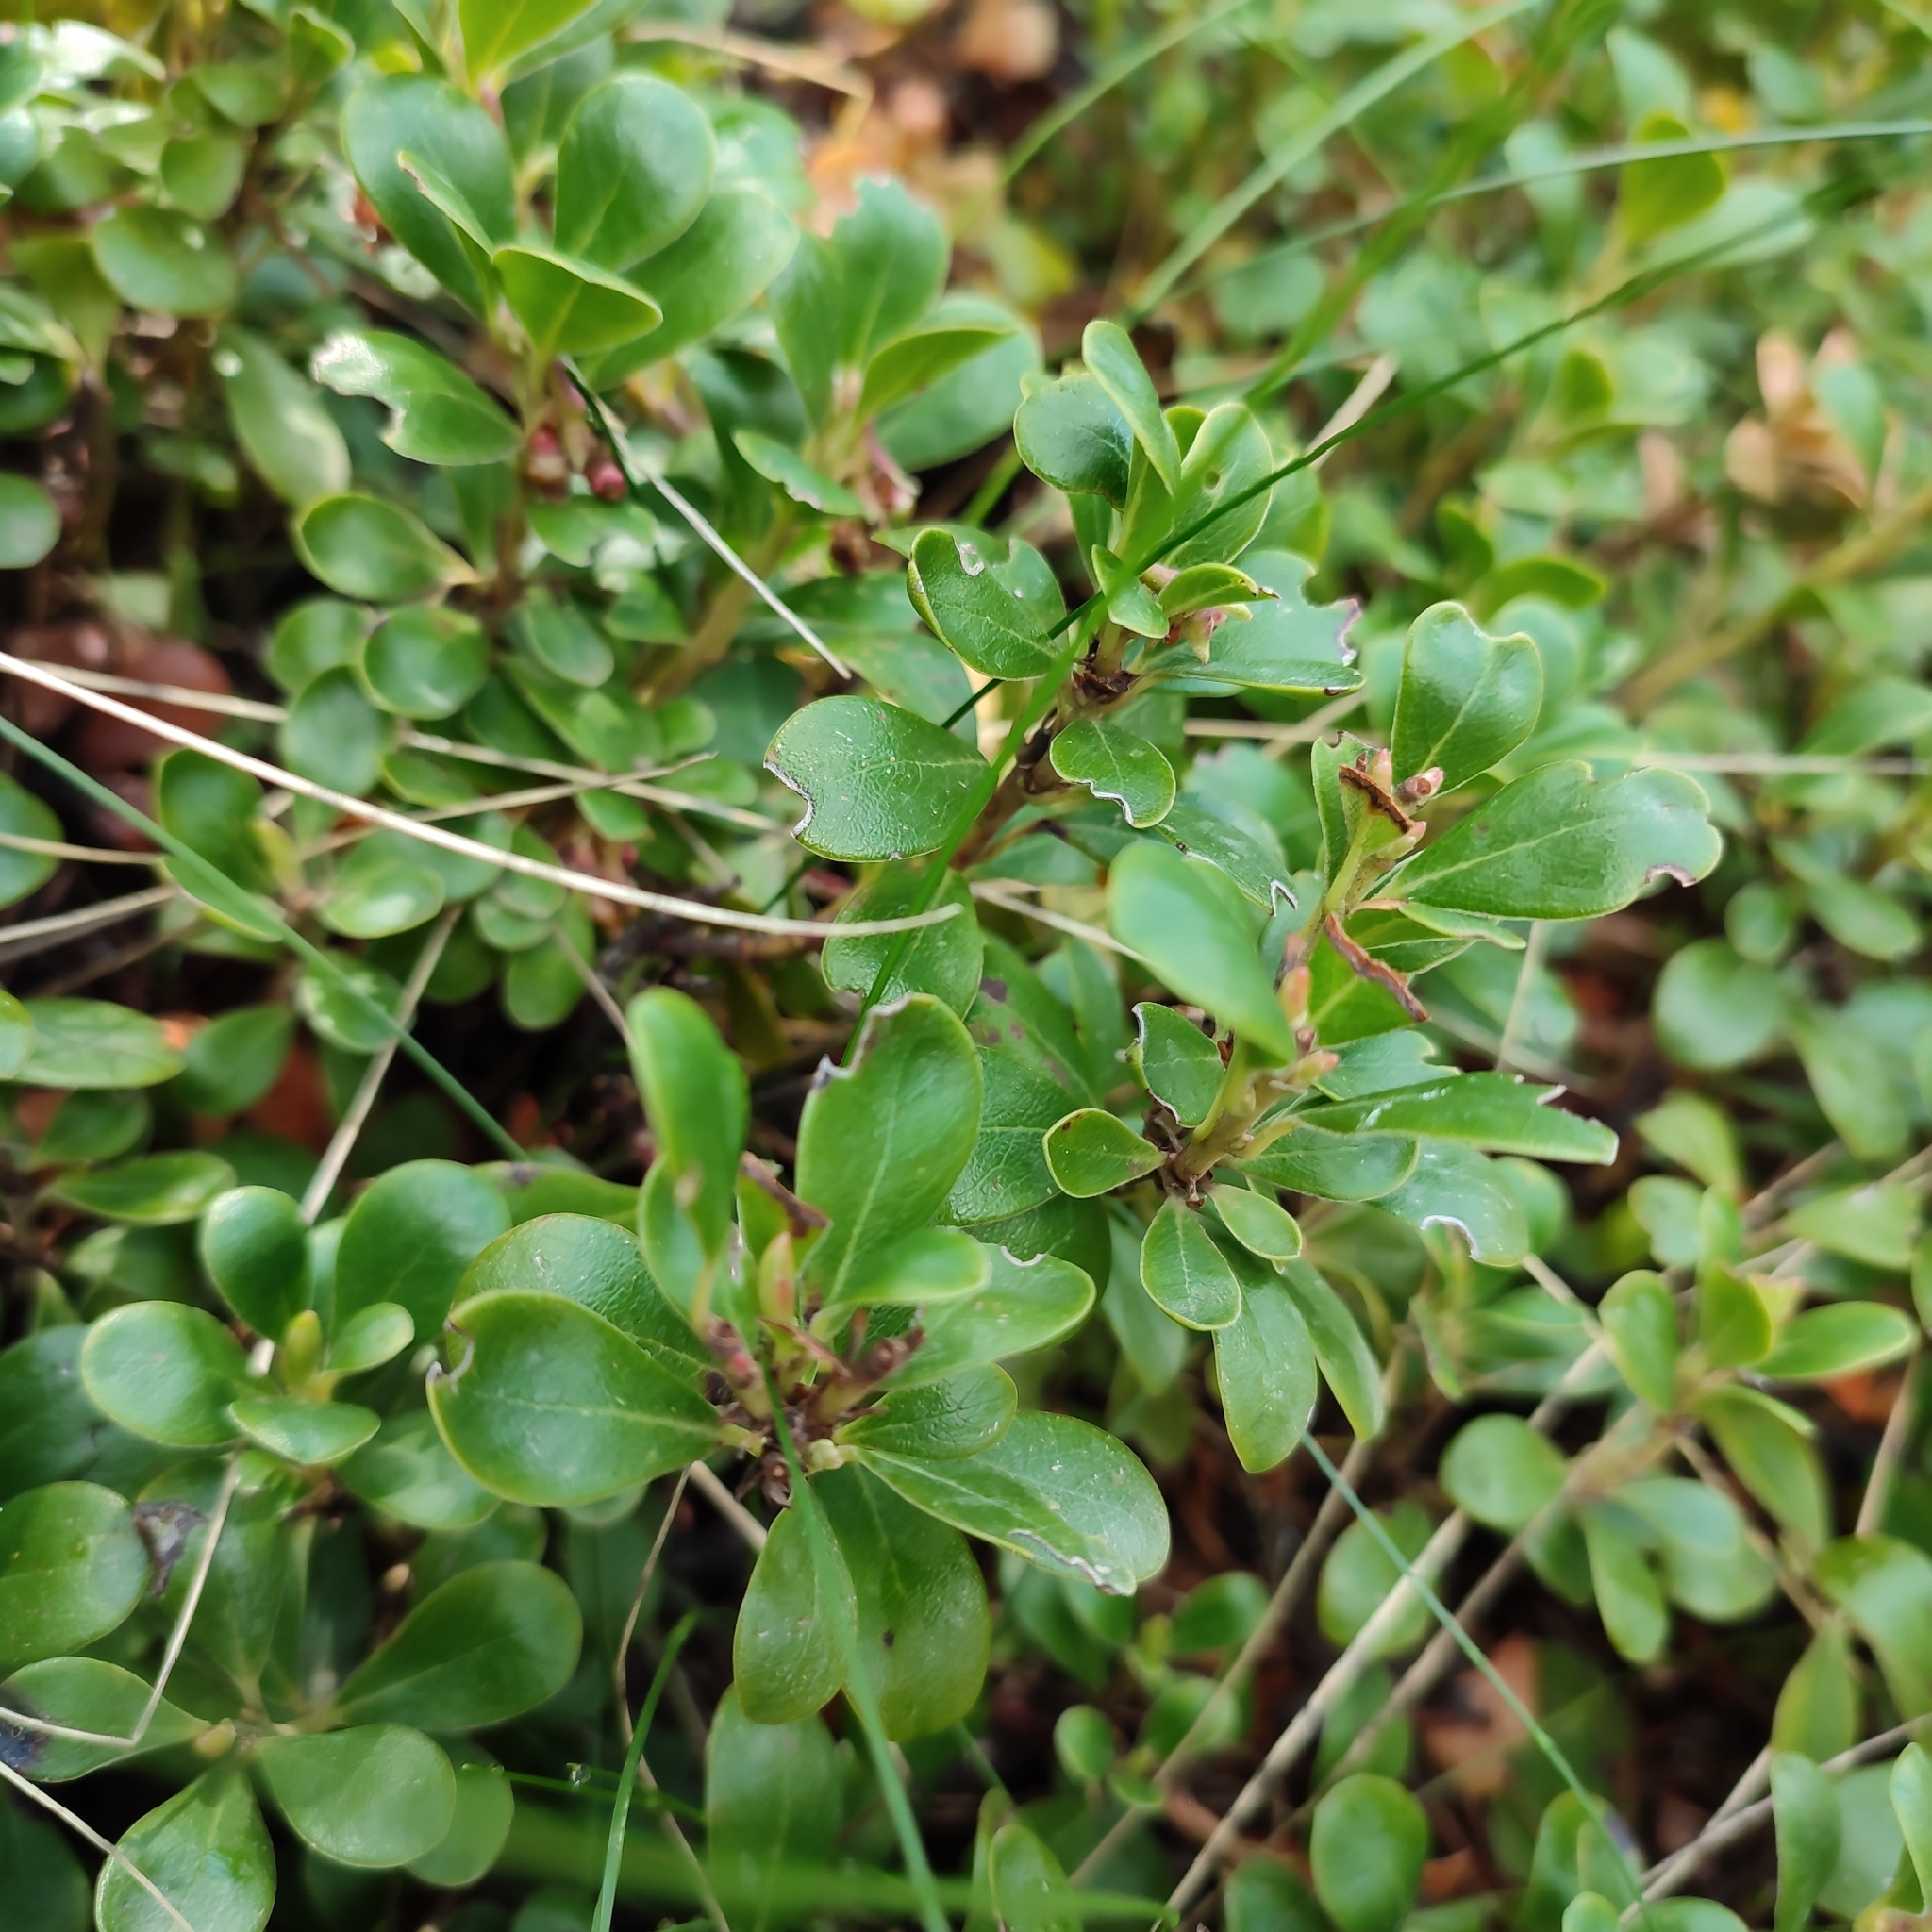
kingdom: Plantae
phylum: Tracheophyta
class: Magnoliopsida
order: Ericales
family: Ericaceae
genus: Arctostaphylos
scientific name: Arctostaphylos uva-ursi
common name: Bearberry
